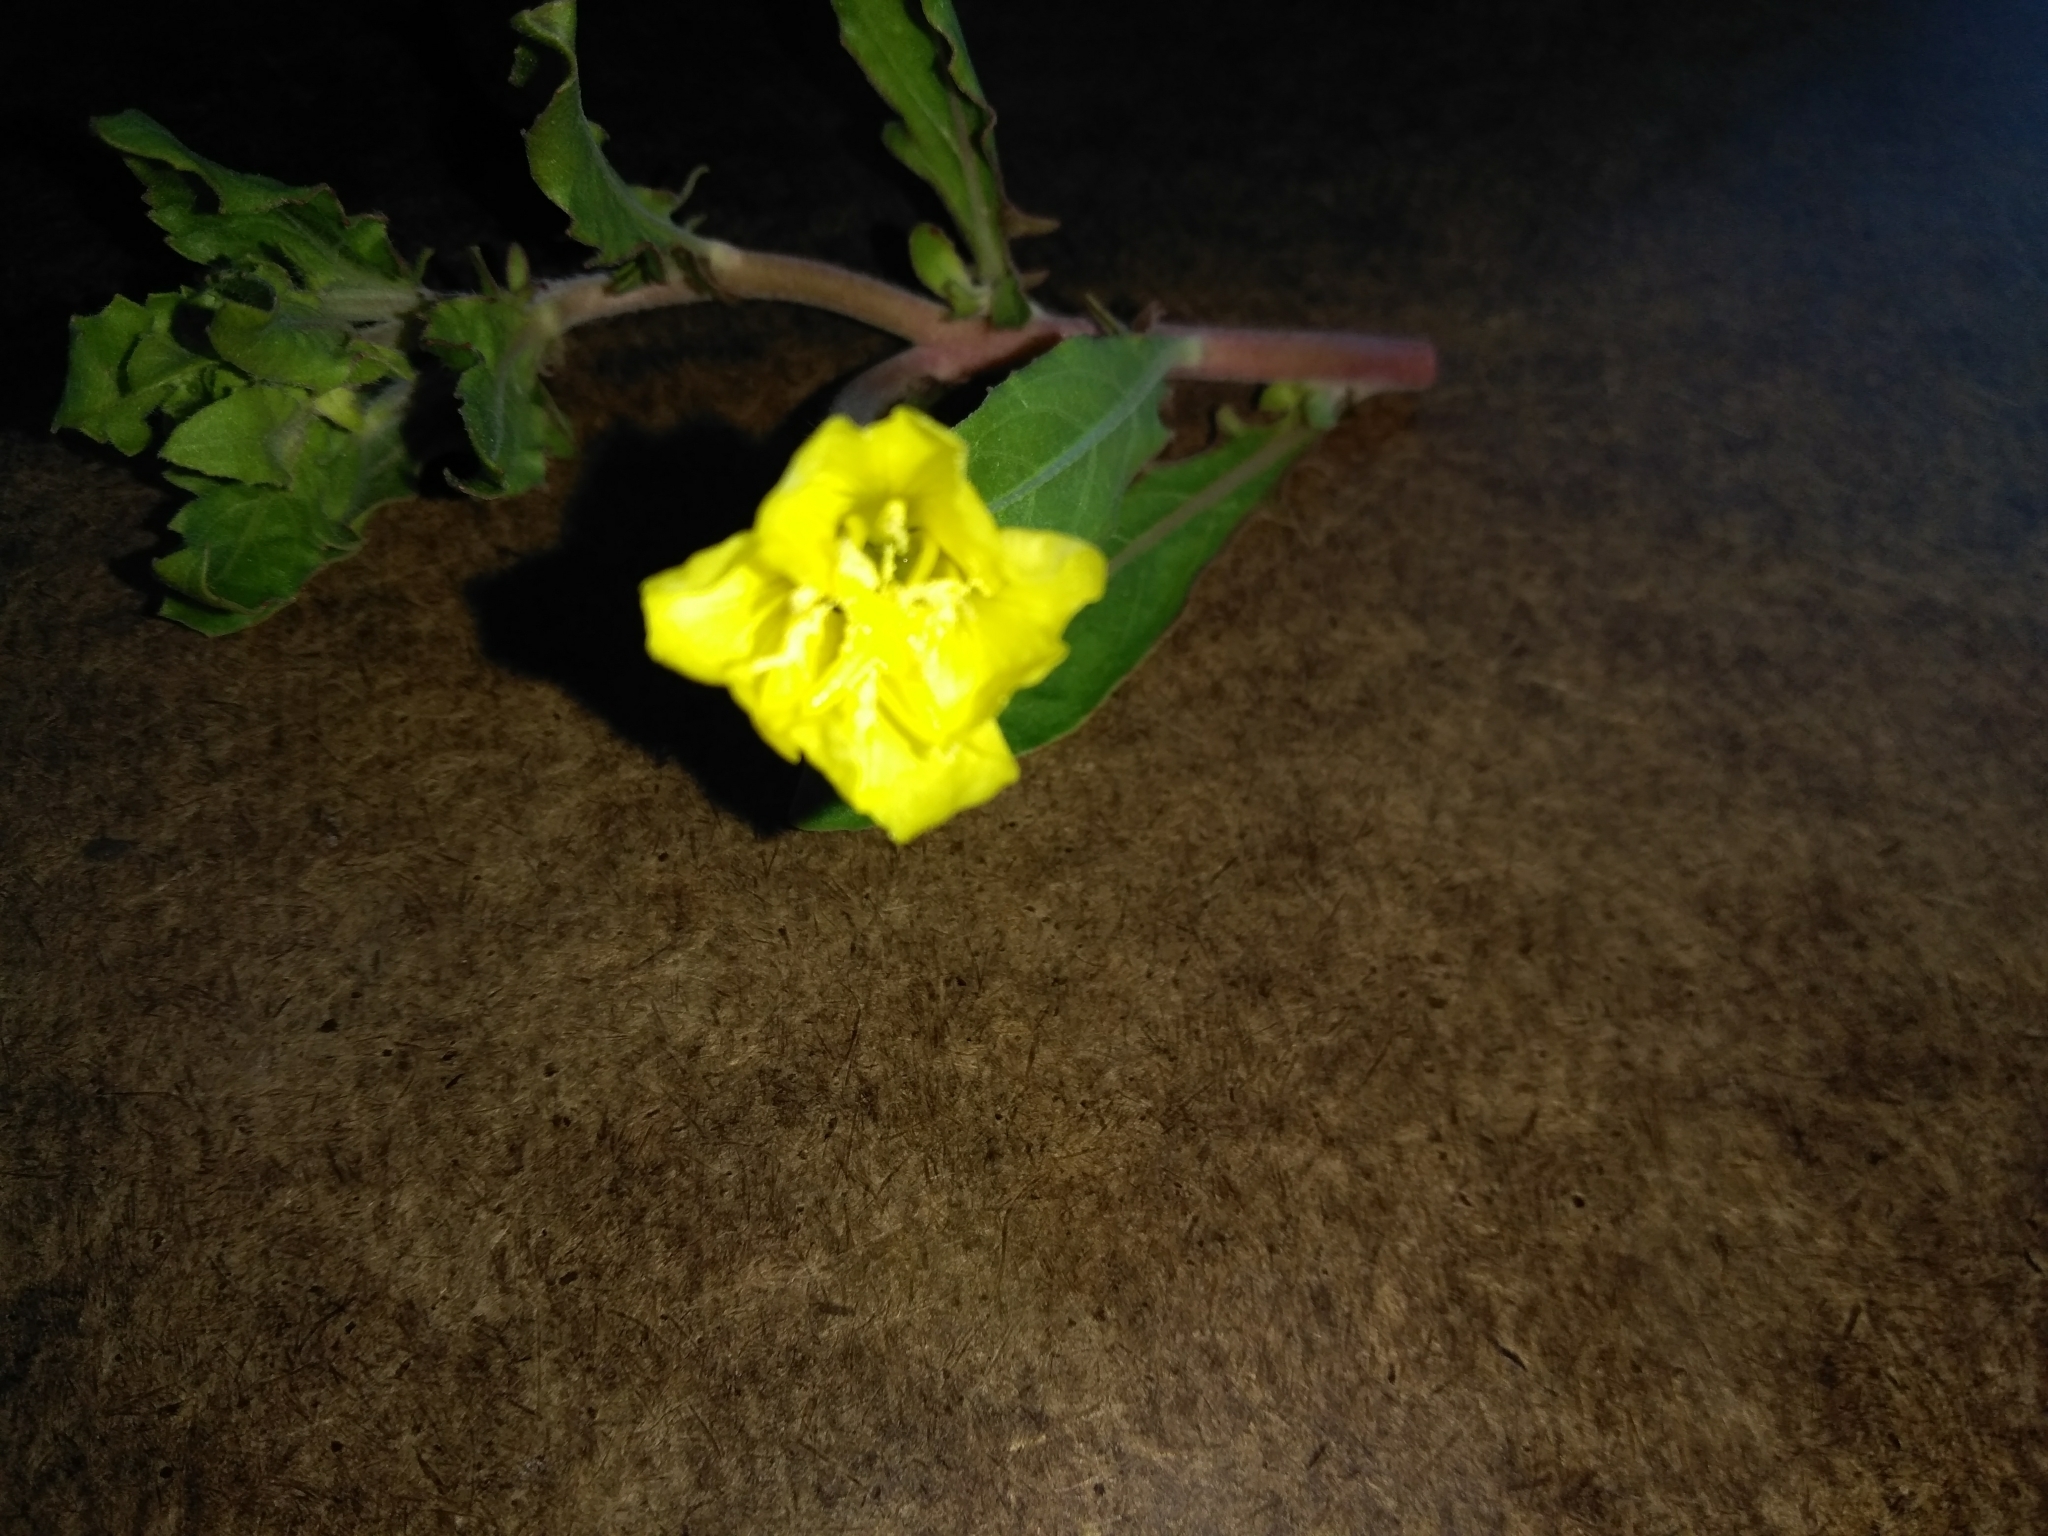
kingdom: Plantae
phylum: Tracheophyta
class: Magnoliopsida
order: Myrtales
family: Onagraceae
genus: Oenothera
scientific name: Oenothera laciniata
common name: Cut-leaved evening-primrose
